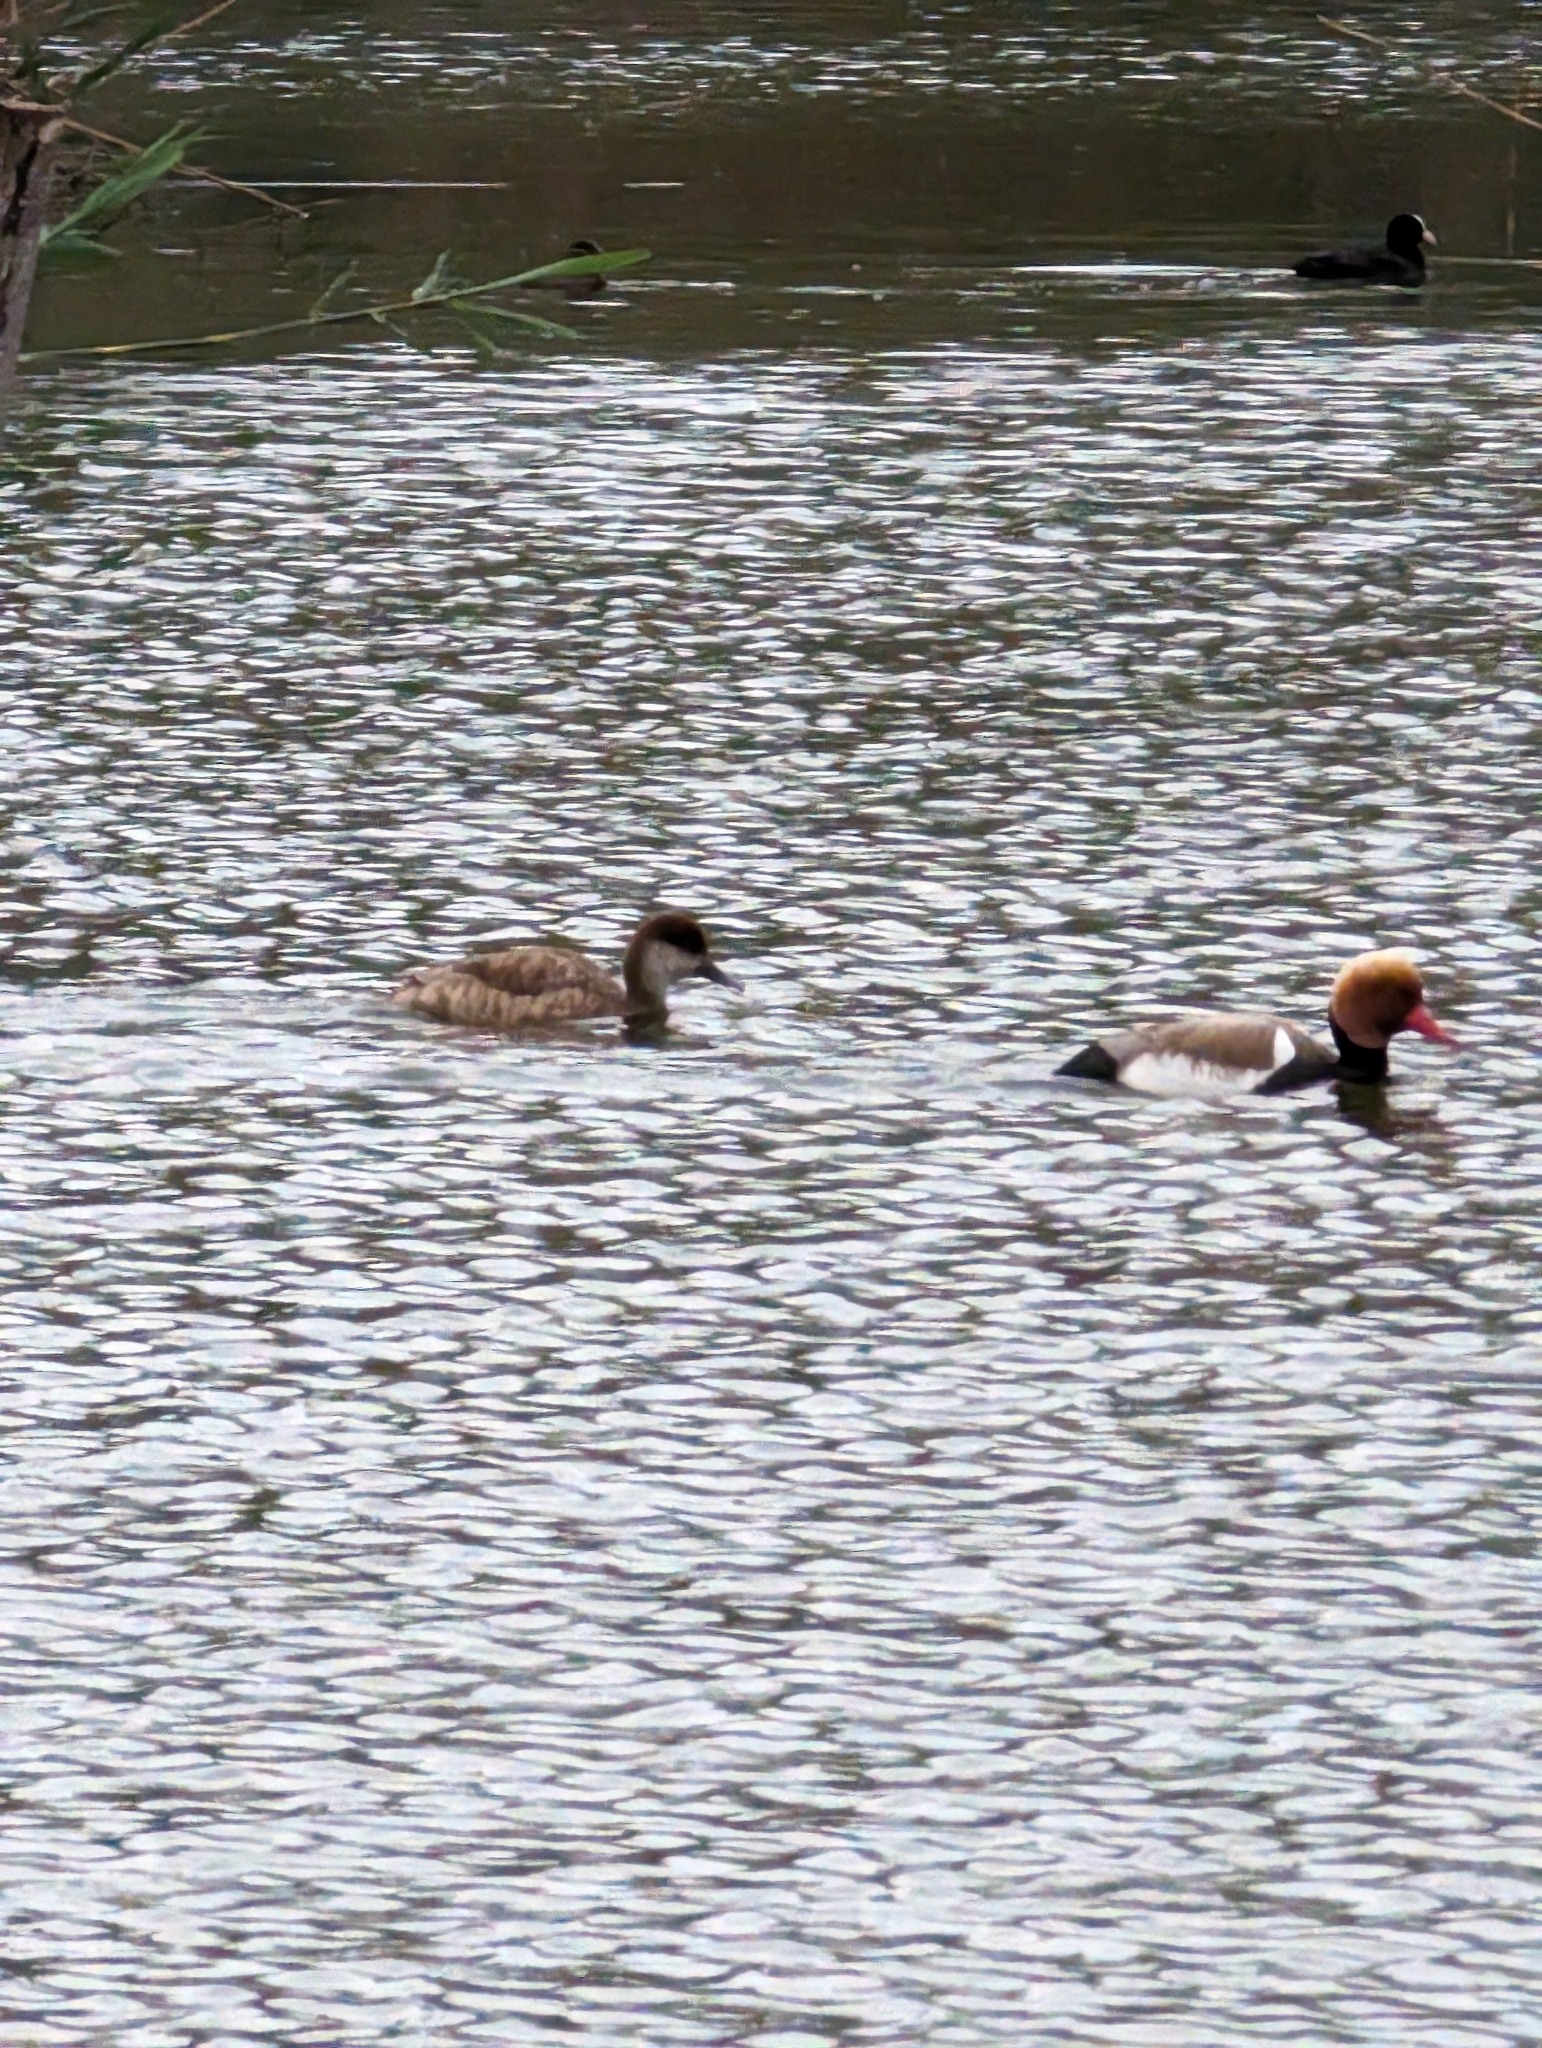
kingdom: Animalia
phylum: Chordata
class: Aves
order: Anseriformes
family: Anatidae
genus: Netta
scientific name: Netta rufina
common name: Red-crested pochard
